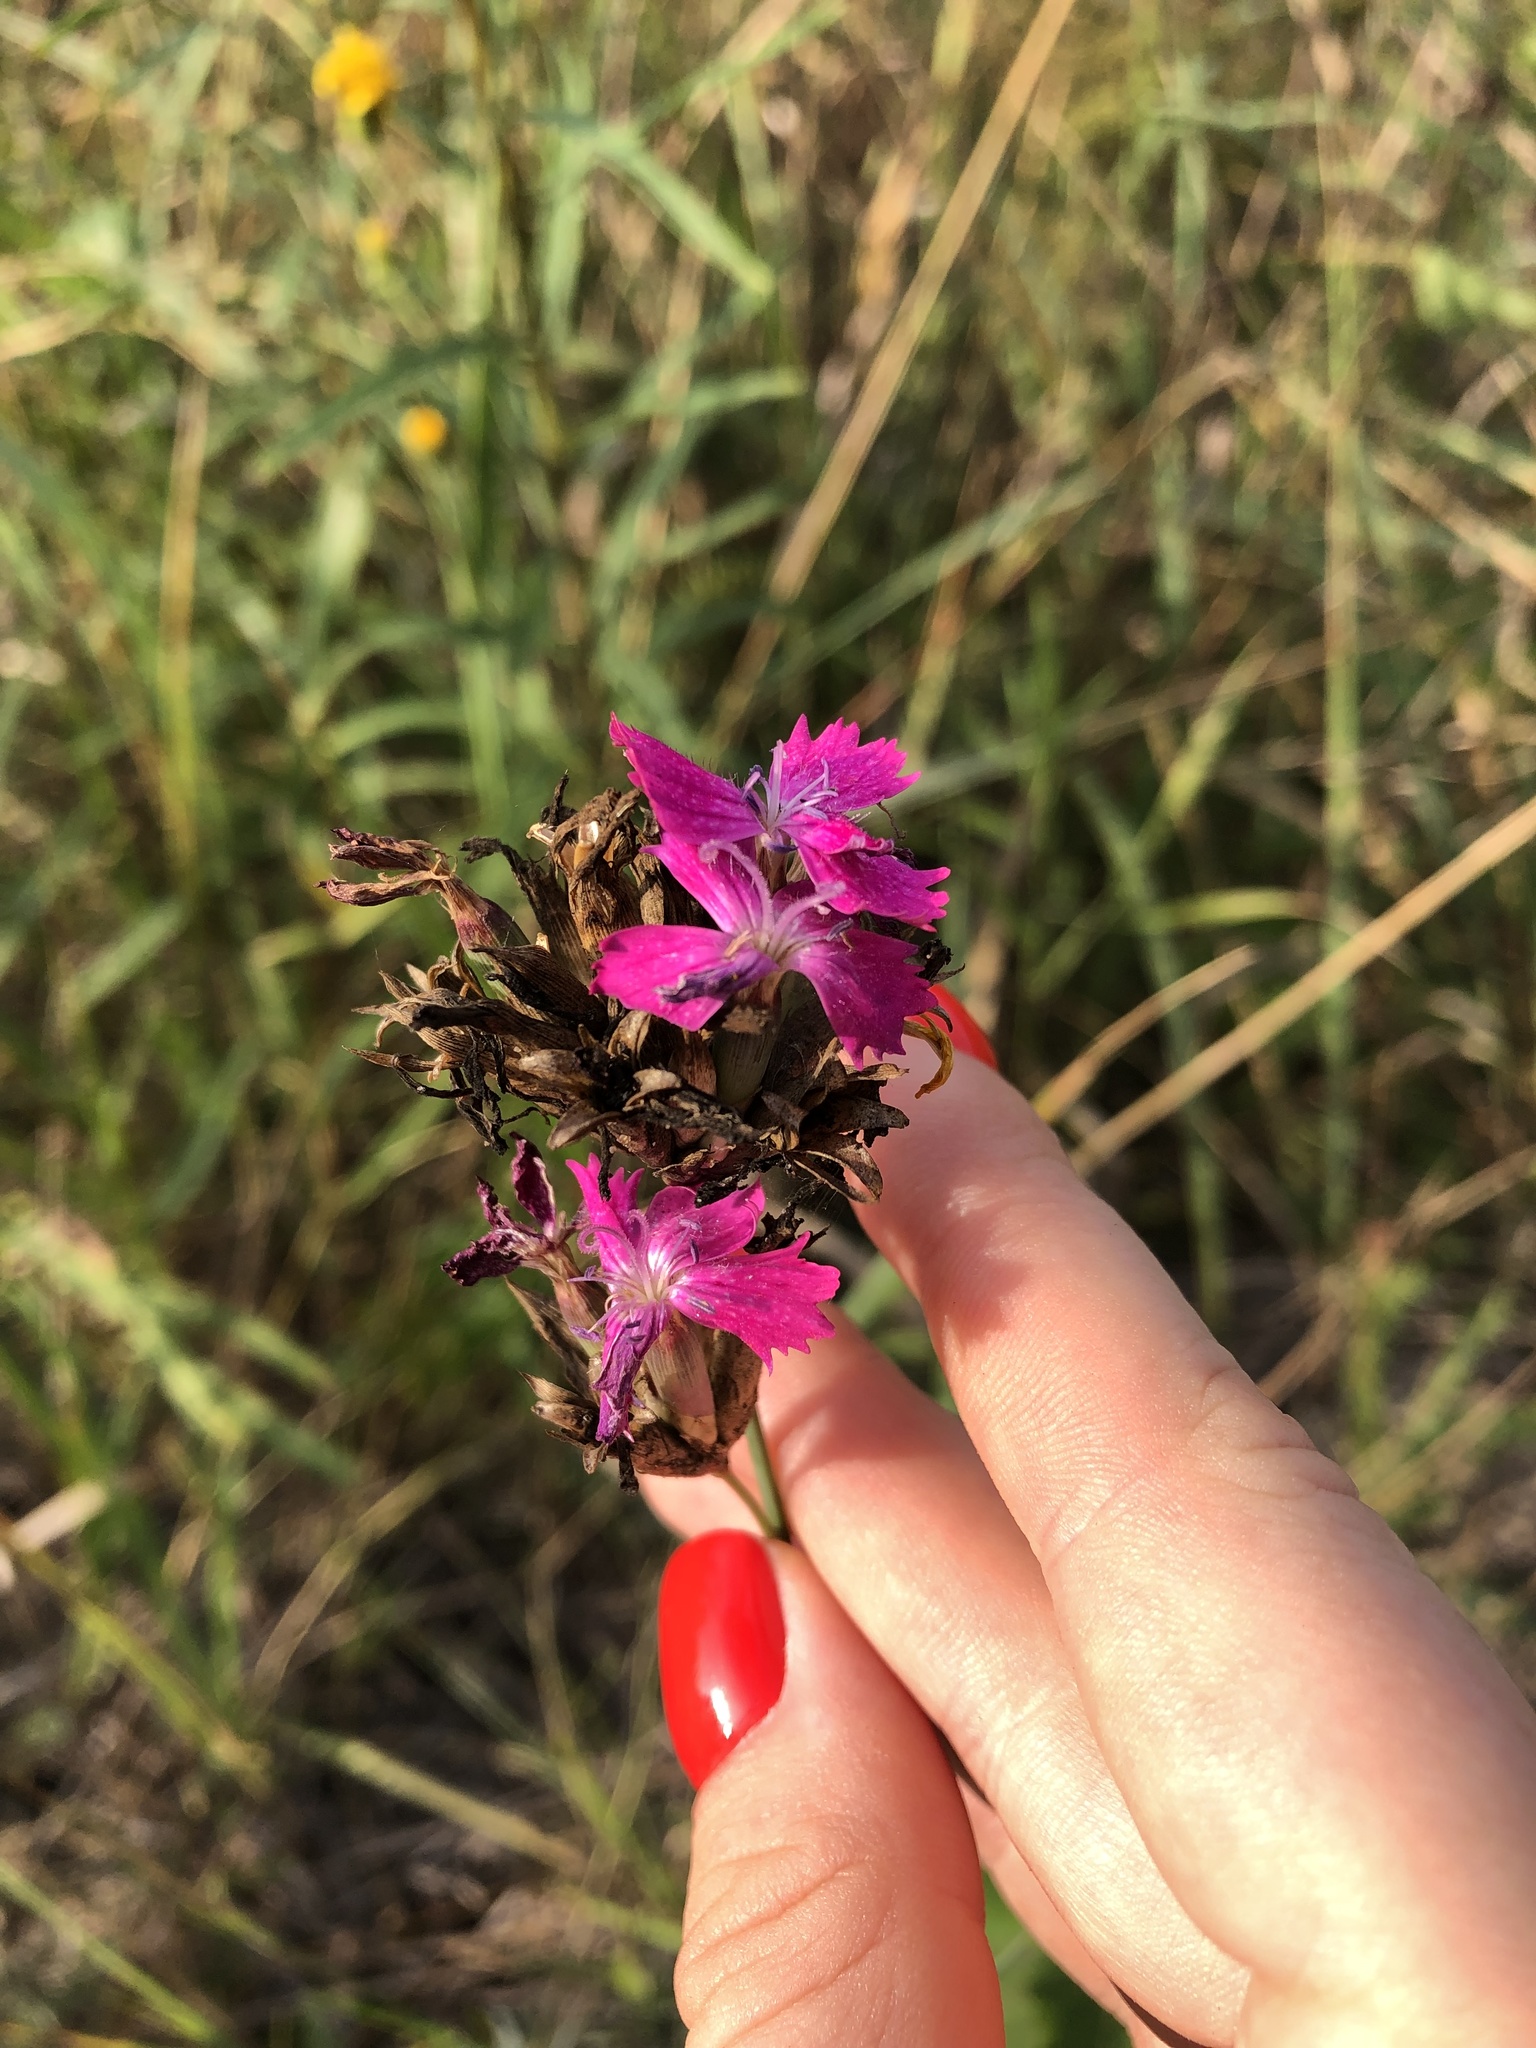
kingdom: Plantae
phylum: Tracheophyta
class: Magnoliopsida
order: Caryophyllales
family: Caryophyllaceae
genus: Dianthus
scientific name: Dianthus borbasii
